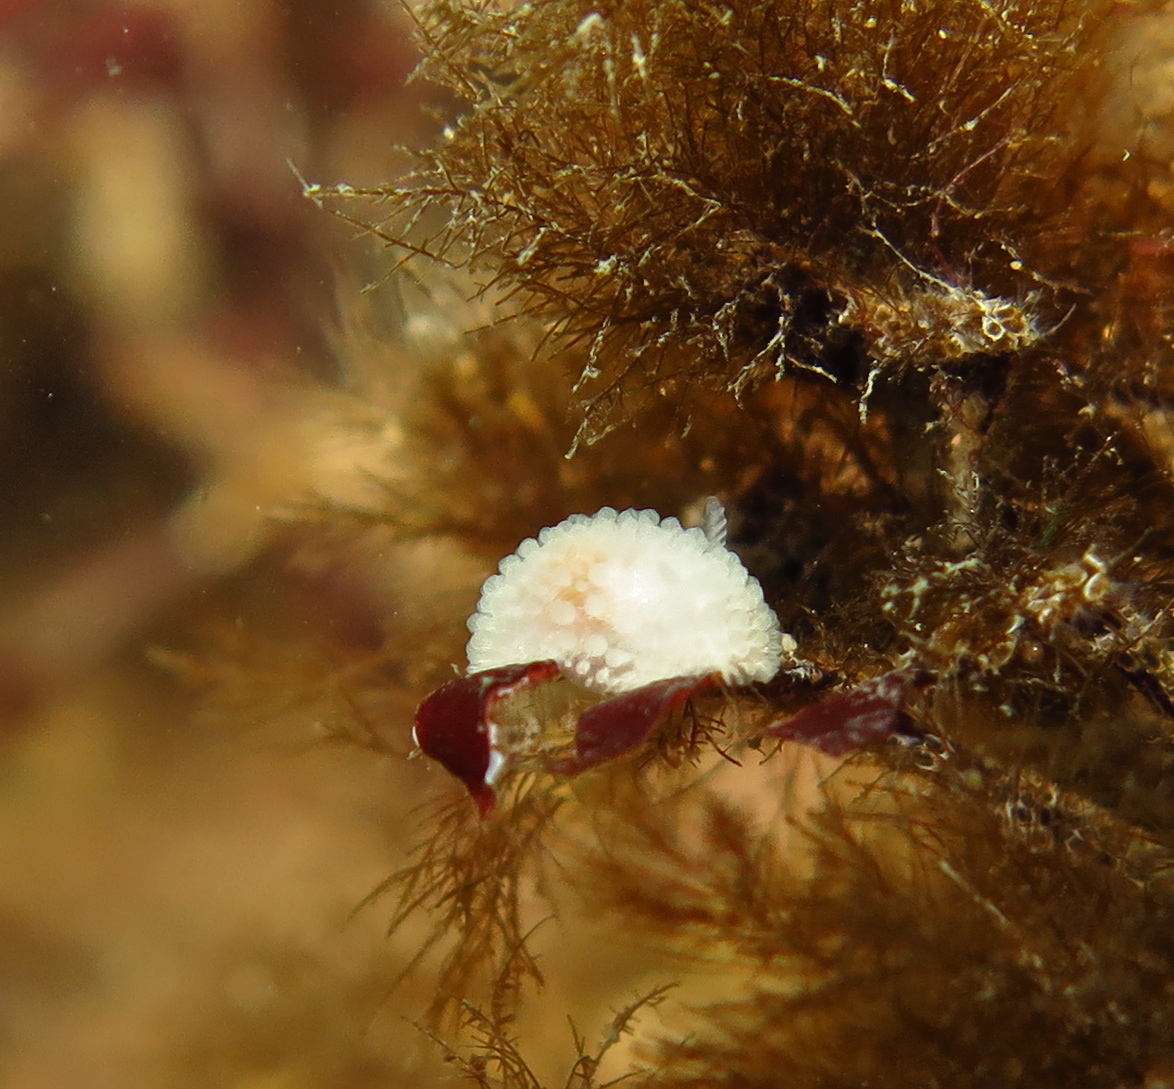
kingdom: Animalia
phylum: Mollusca
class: Gastropoda
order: Nudibranchia
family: Onchidorididae
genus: Onchidoris
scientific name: Onchidoris muricata
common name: Rough doris
